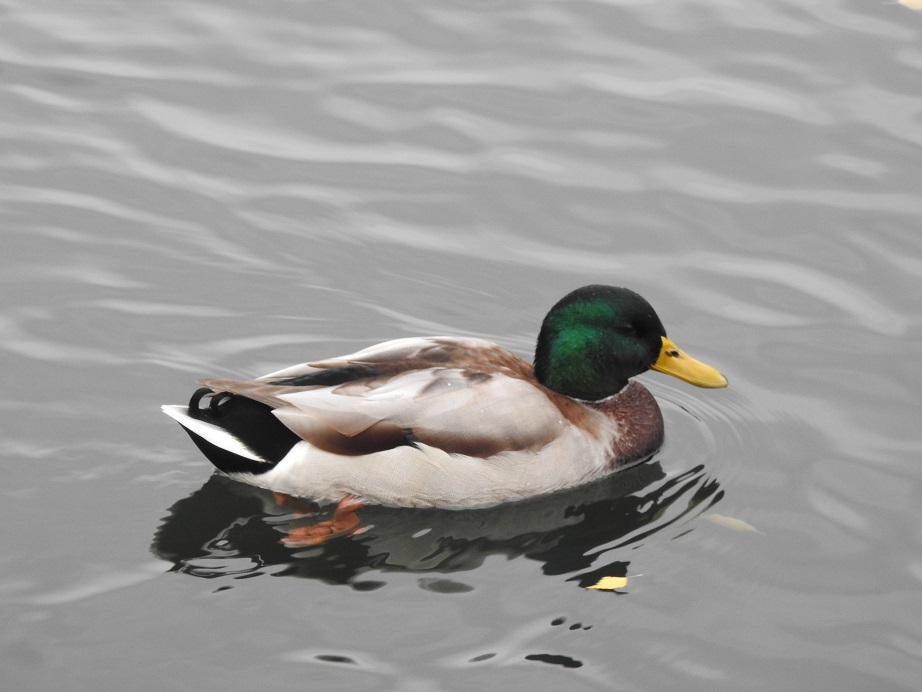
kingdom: Animalia
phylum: Chordata
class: Aves
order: Anseriformes
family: Anatidae
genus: Anas
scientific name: Anas platyrhynchos
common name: Mallard
